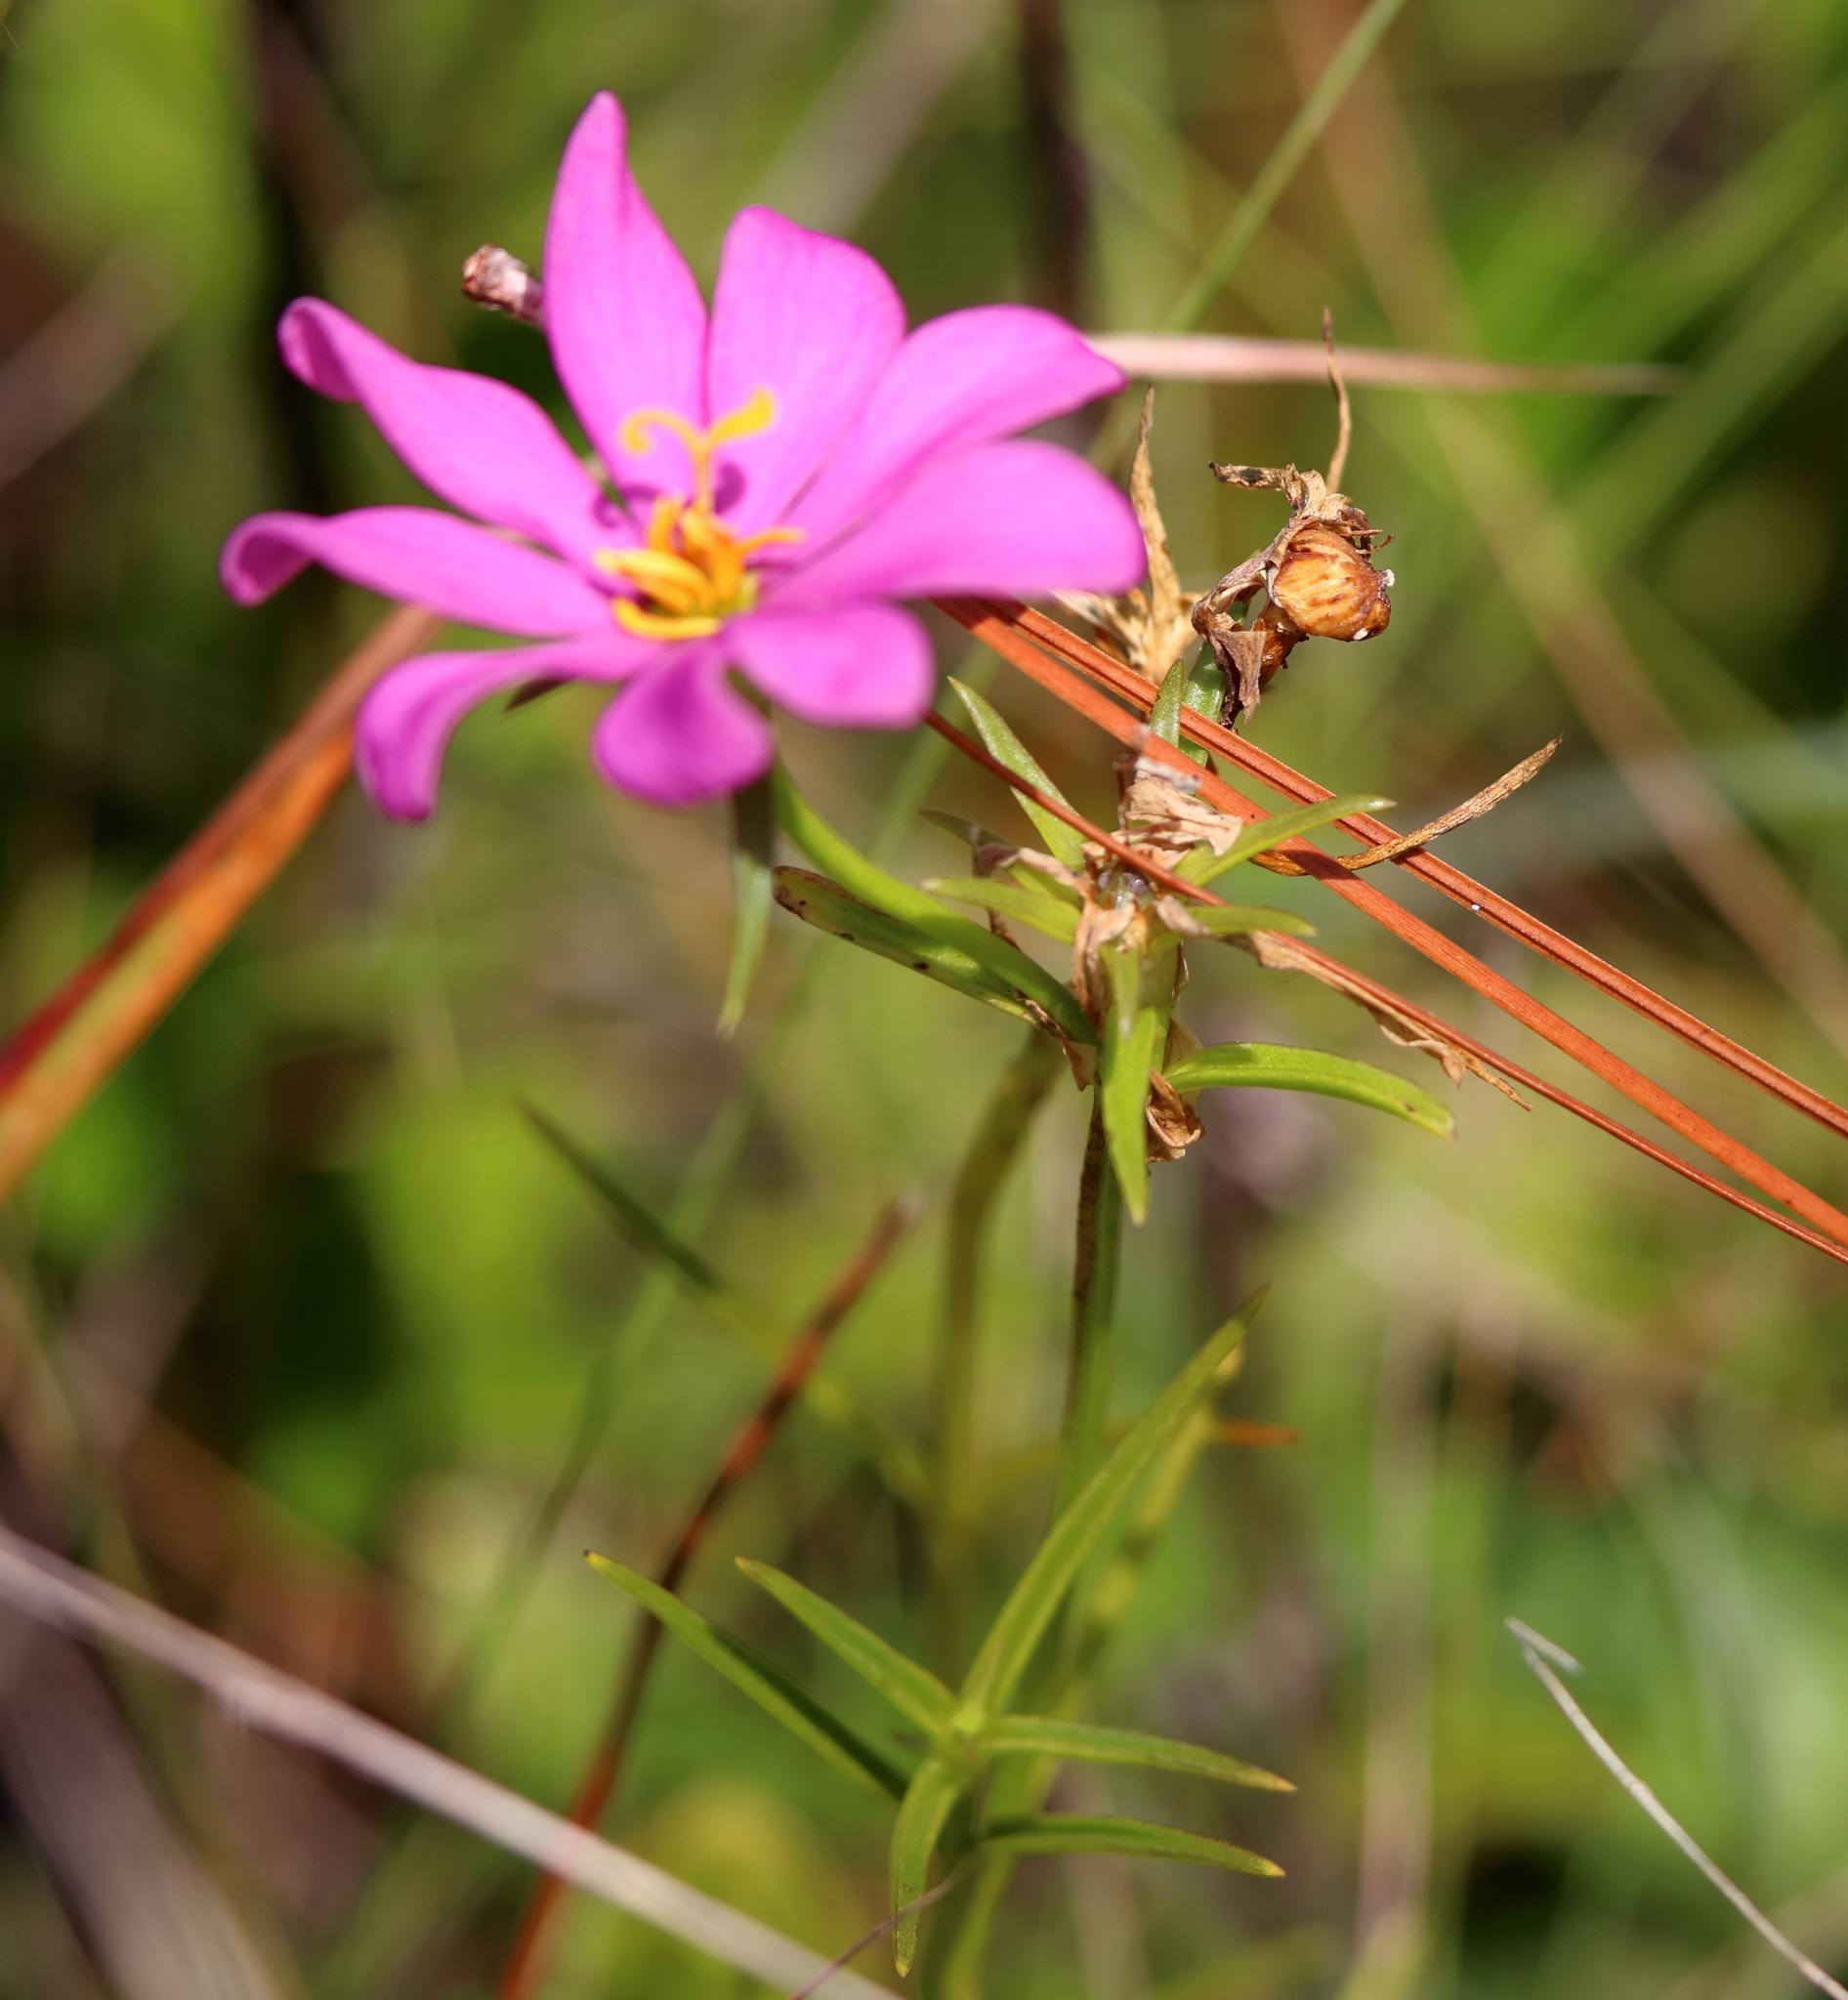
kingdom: Plantae
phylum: Tracheophyta
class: Magnoliopsida
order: Gentianales
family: Gentianaceae
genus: Sabatia
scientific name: Sabatia gentianoides
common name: Pinewoods rose-gentian
